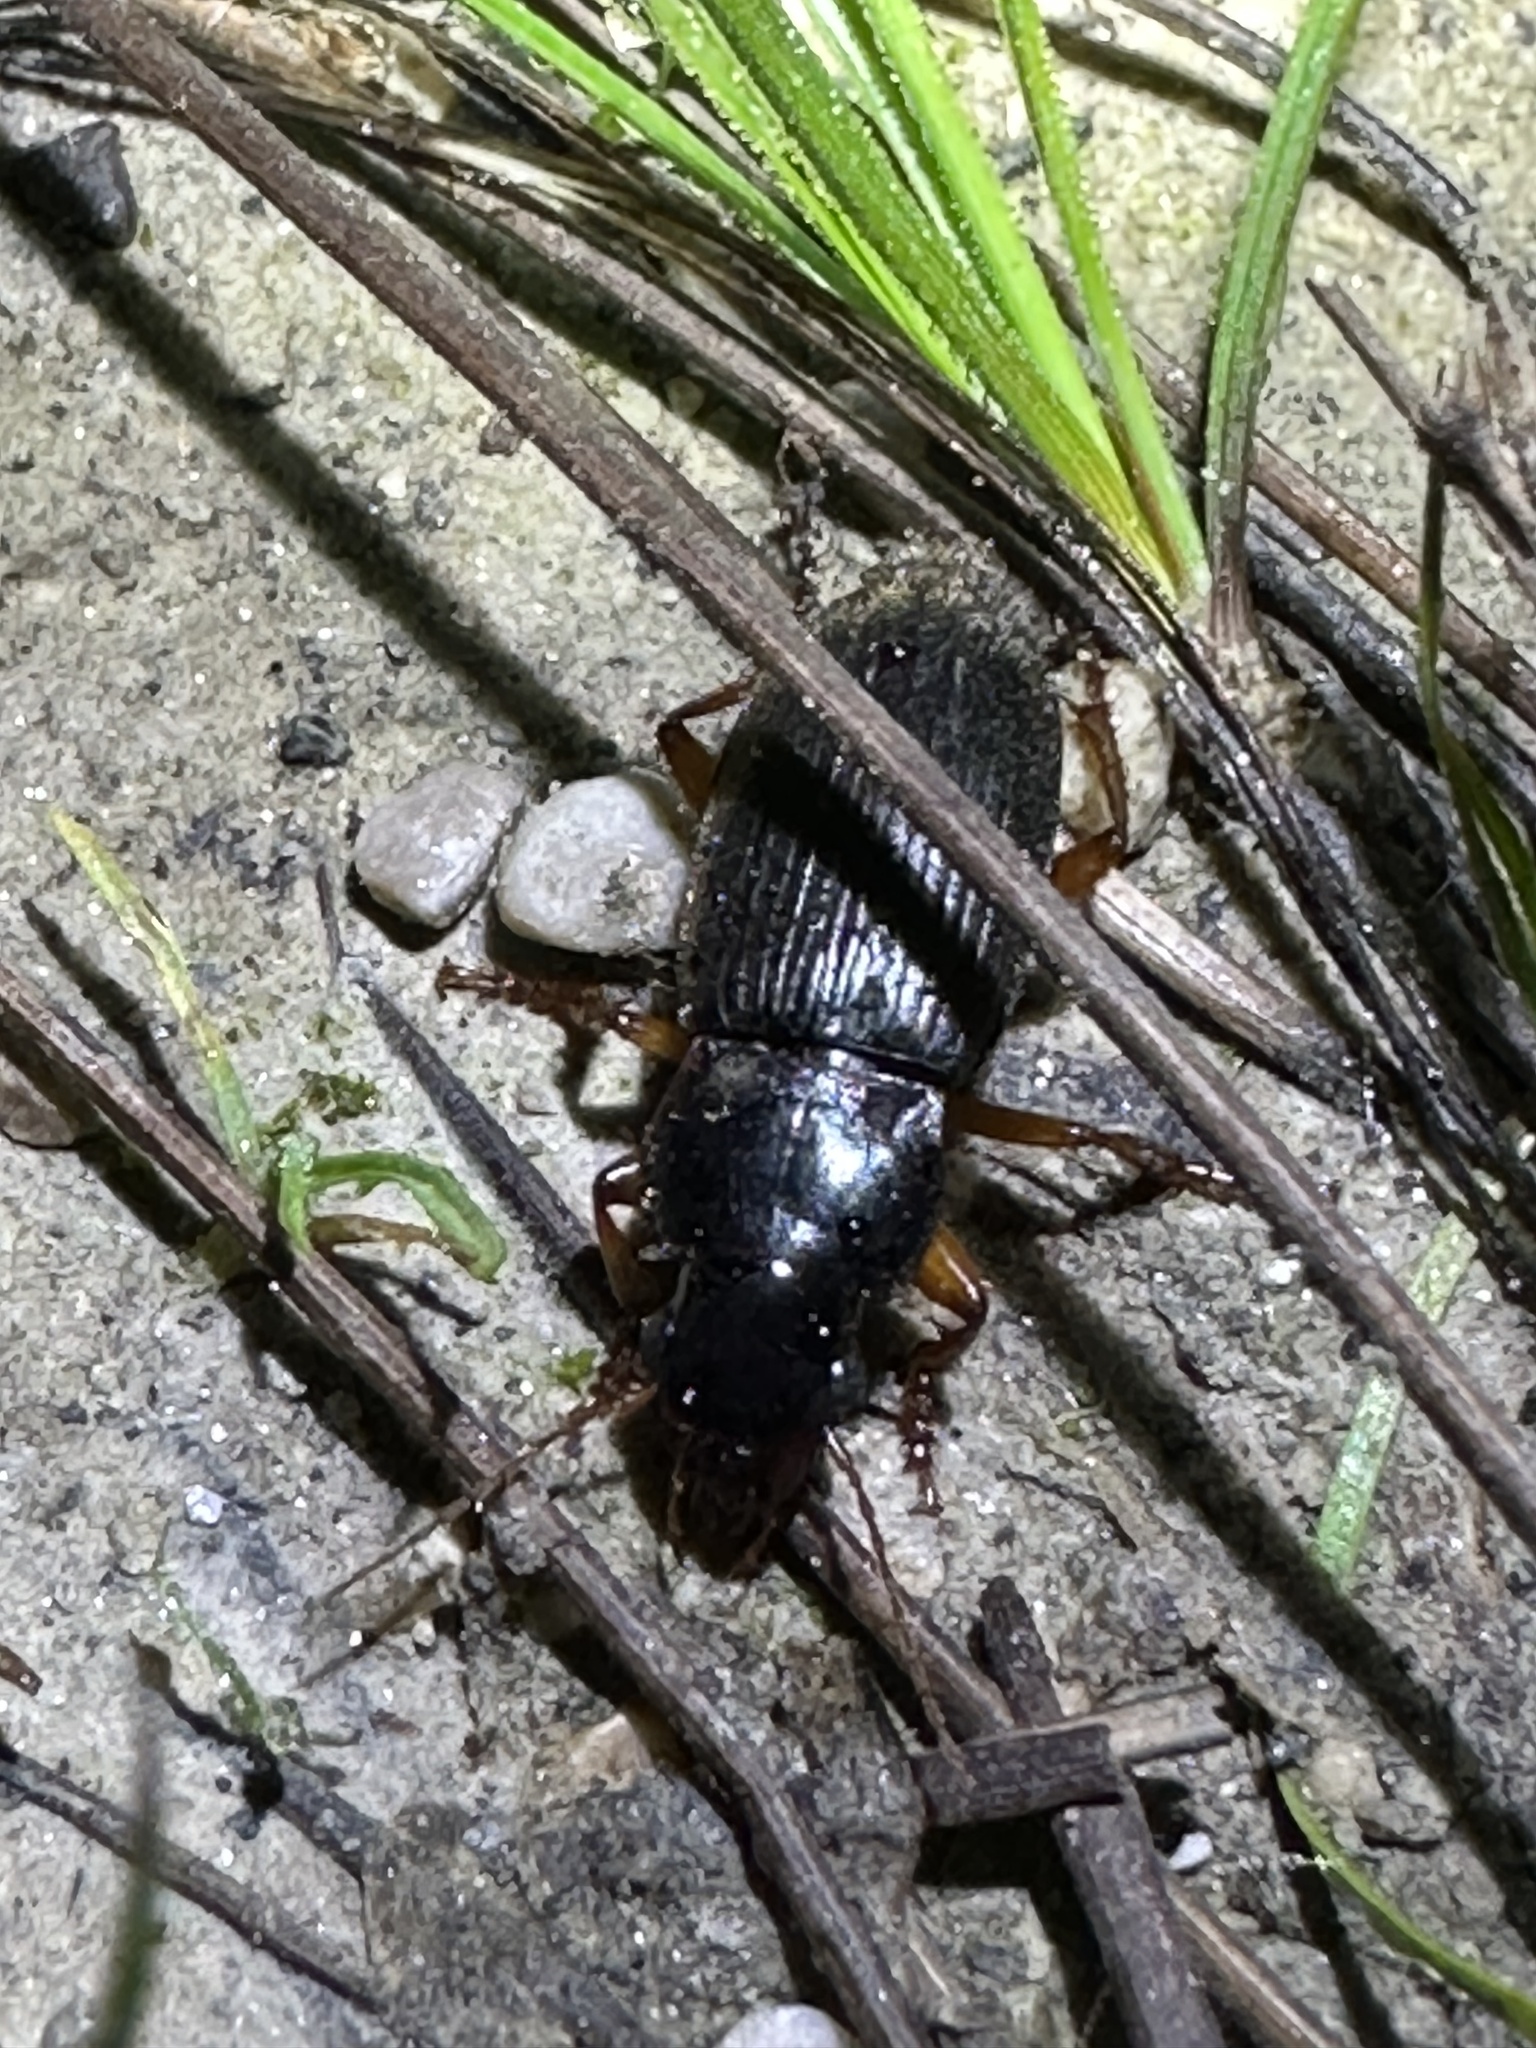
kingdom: Animalia
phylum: Arthropoda
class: Insecta
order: Coleoptera
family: Carabidae
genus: Harpalus
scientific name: Harpalus rufipes
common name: Strawberry harp ground beetle
